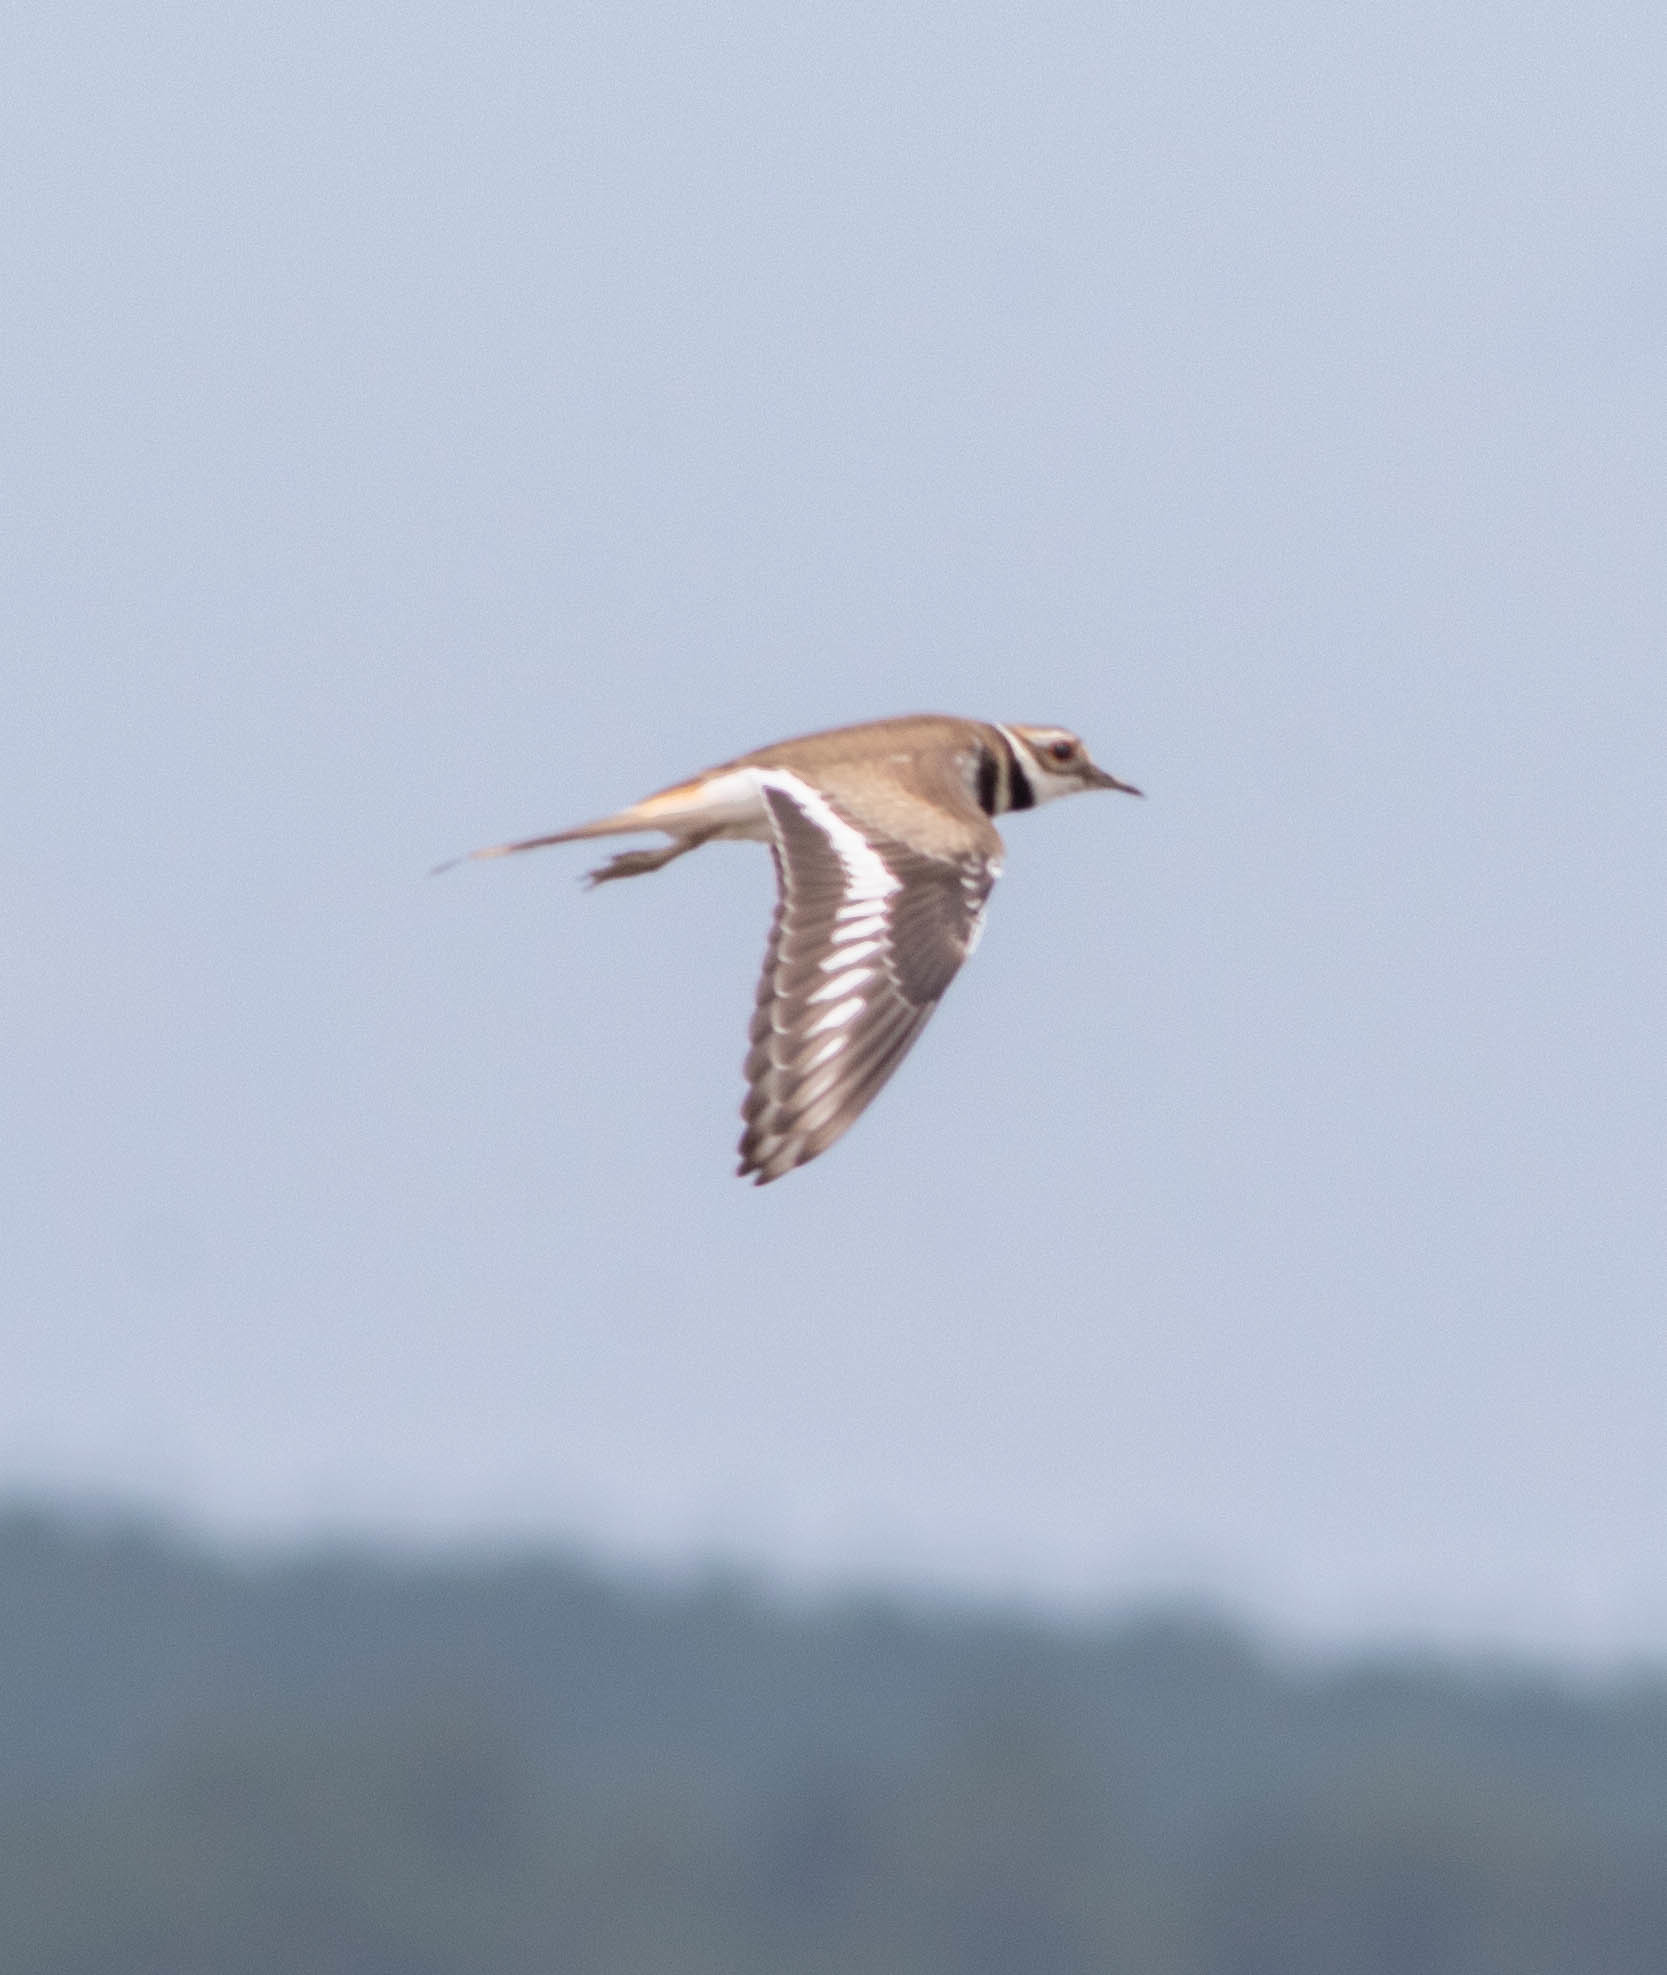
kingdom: Animalia
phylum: Chordata
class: Aves
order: Charadriiformes
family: Charadriidae
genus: Charadrius
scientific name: Charadrius vociferus
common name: Killdeer
